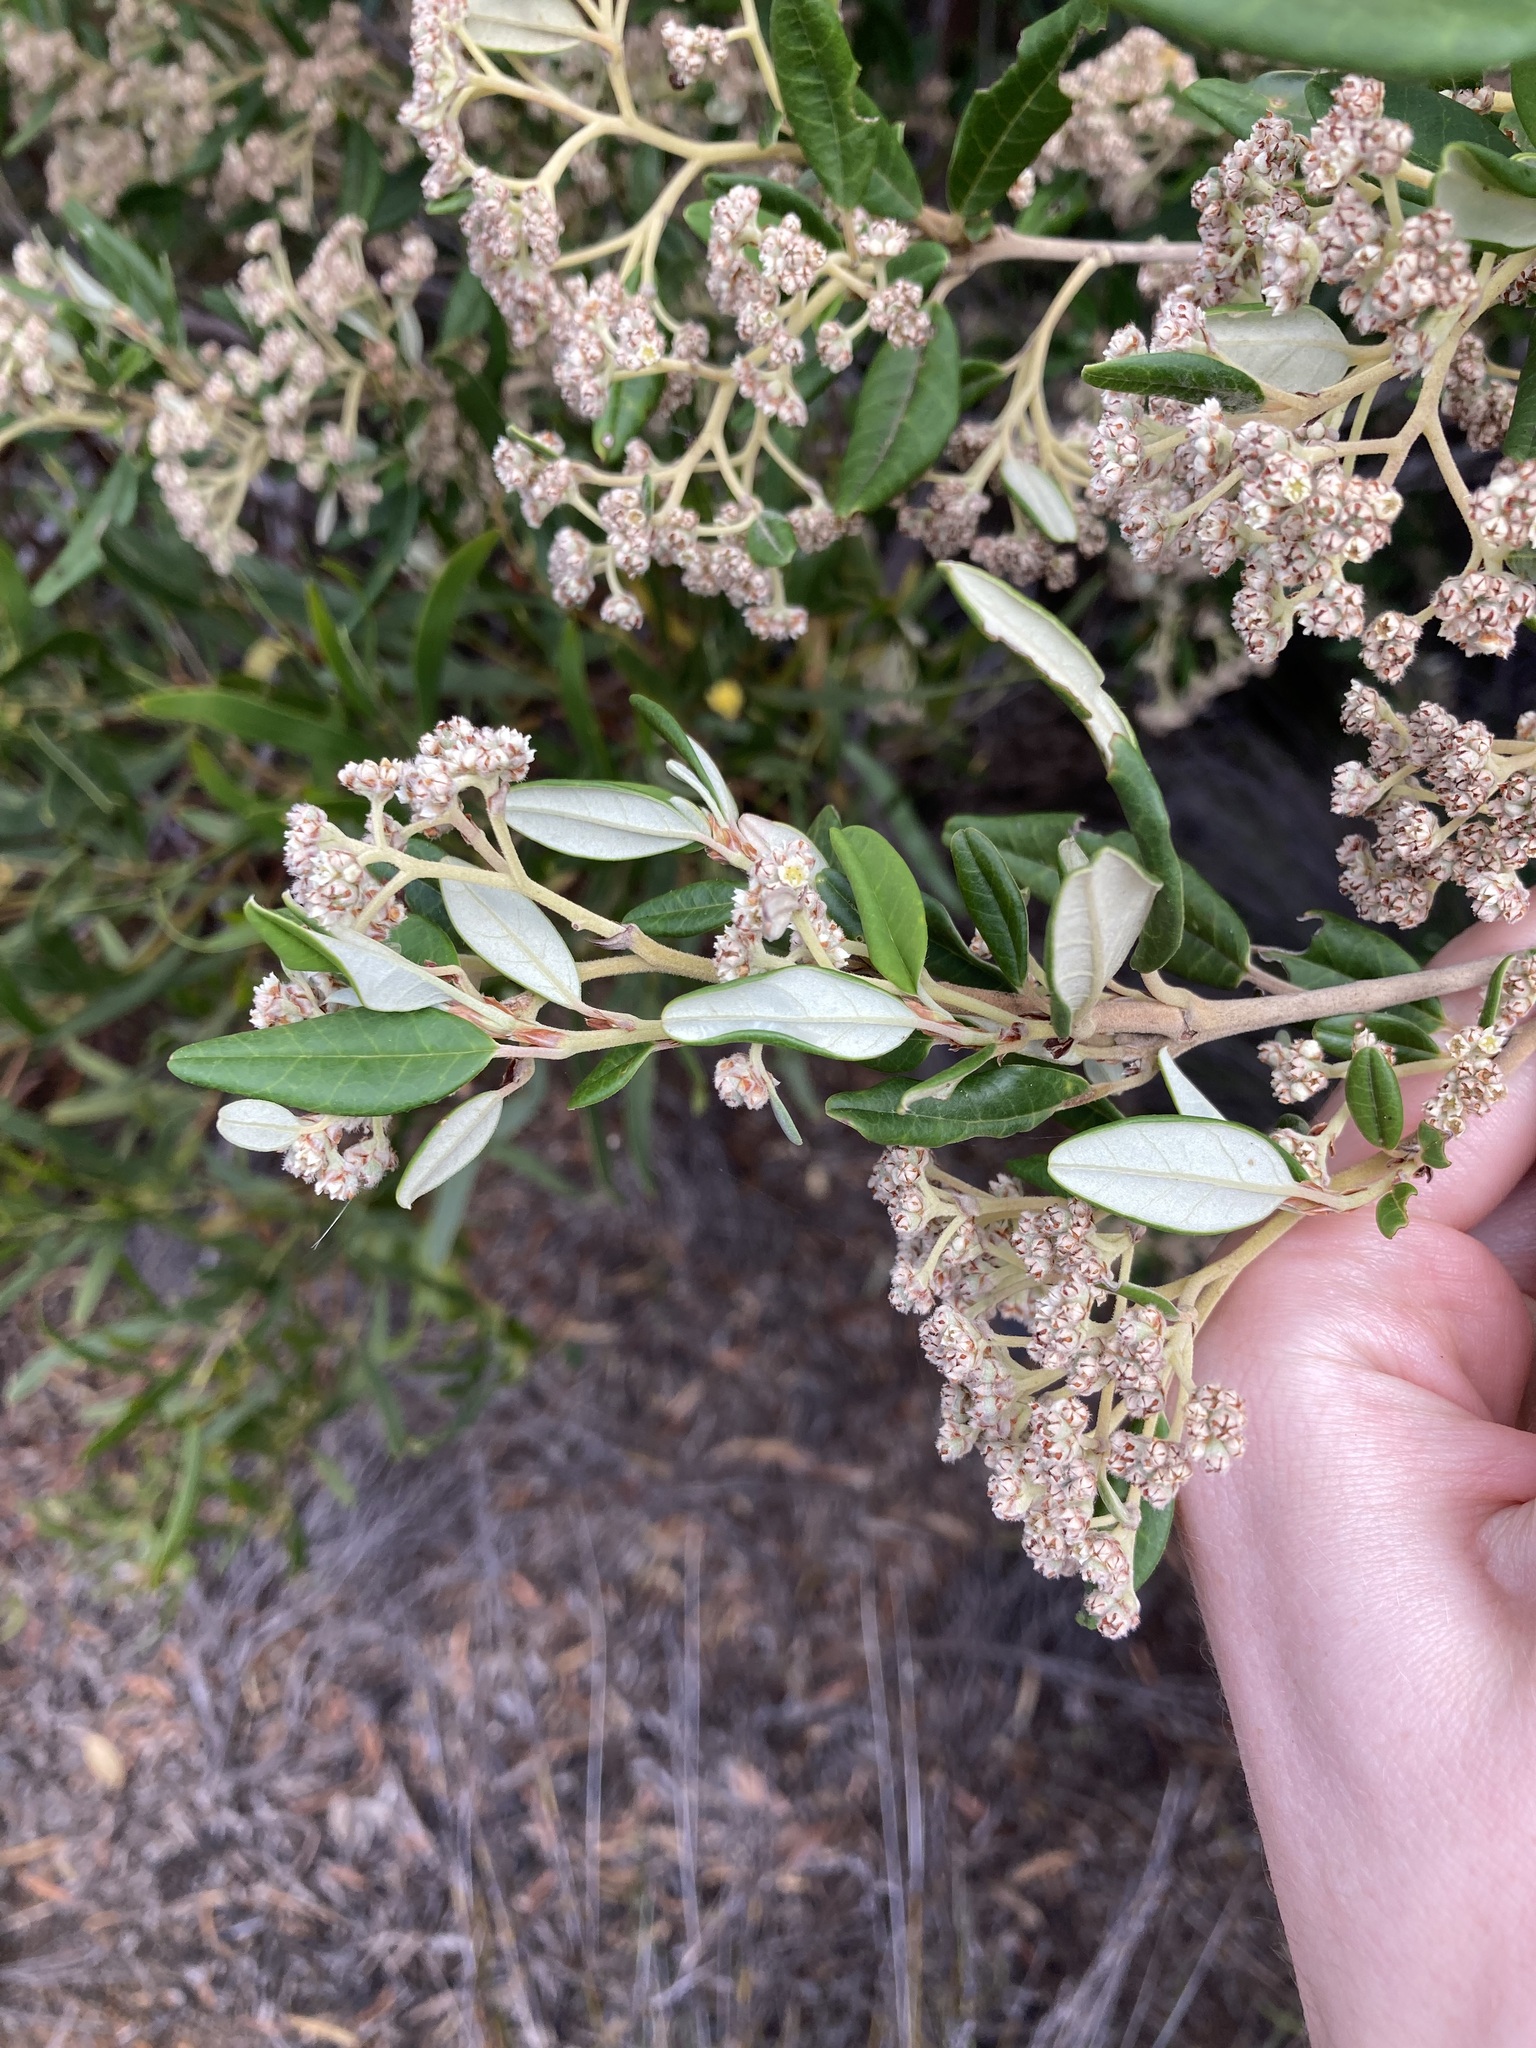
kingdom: Plantae
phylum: Tracheophyta
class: Magnoliopsida
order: Rosales
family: Rhamnaceae
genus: Spyridium
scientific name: Spyridium globulosum
